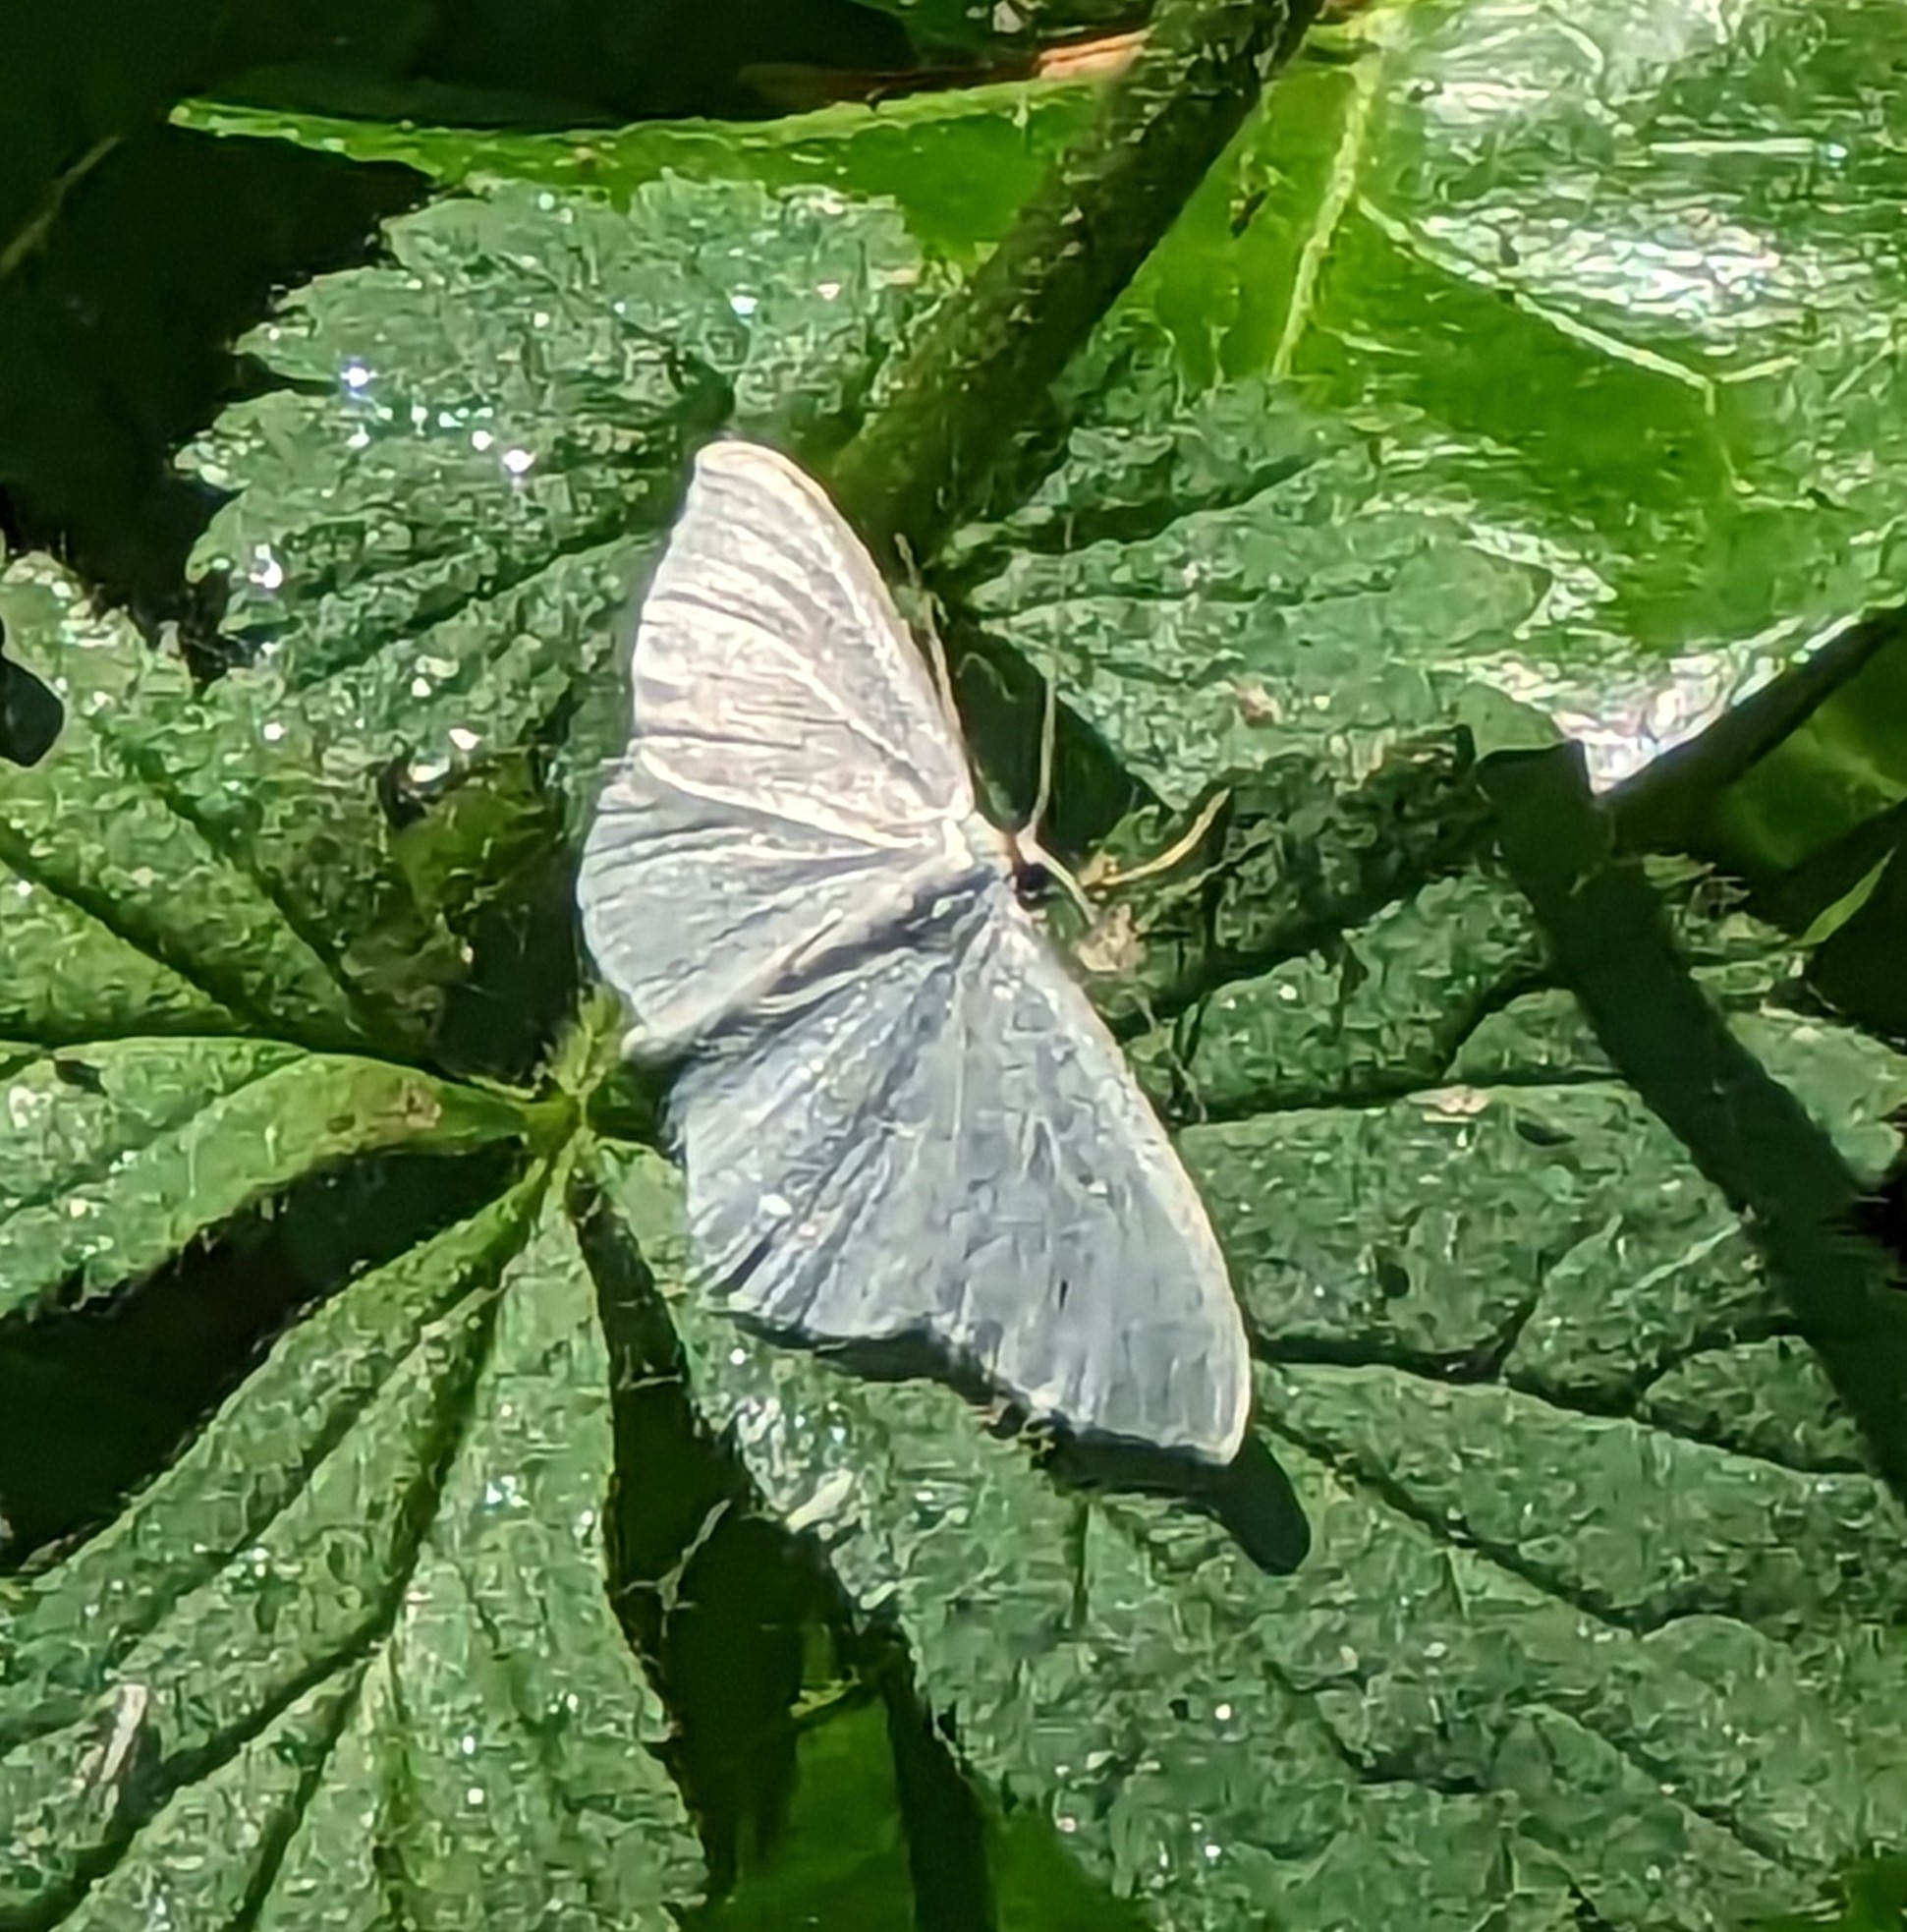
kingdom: Animalia
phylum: Arthropoda
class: Insecta
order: Lepidoptera
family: Geometridae
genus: Scopula
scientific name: Scopula floslactata
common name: Cream wave
